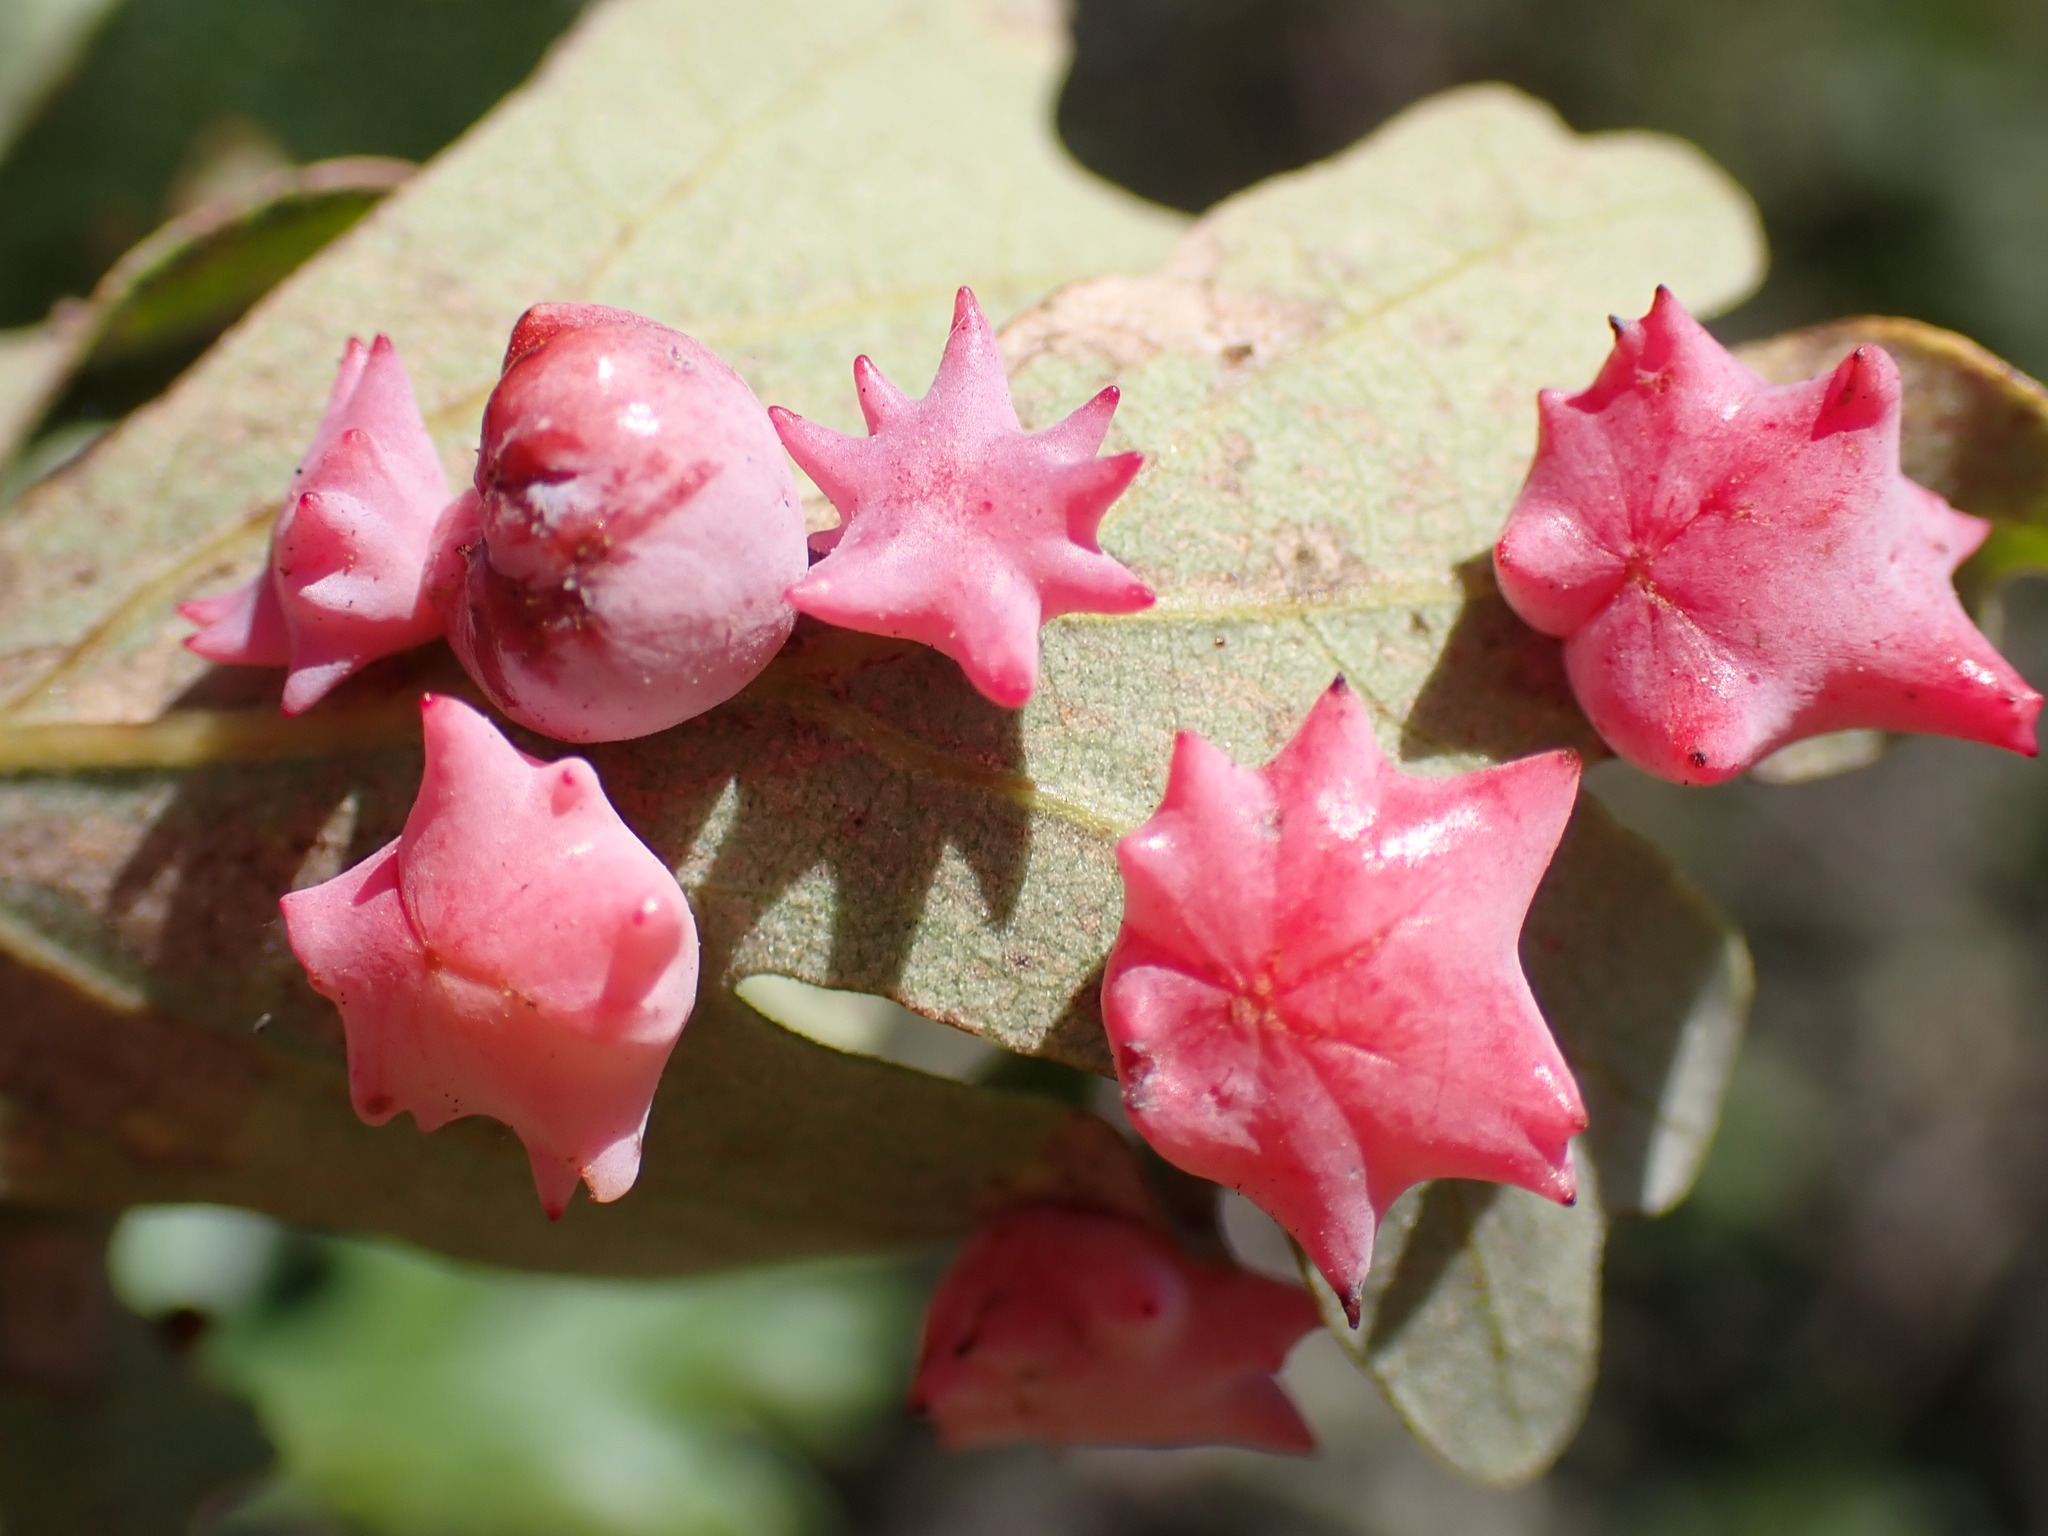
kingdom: Animalia
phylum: Arthropoda
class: Insecta
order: Hymenoptera
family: Cynipidae
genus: Cynips
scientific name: Cynips douglasi
